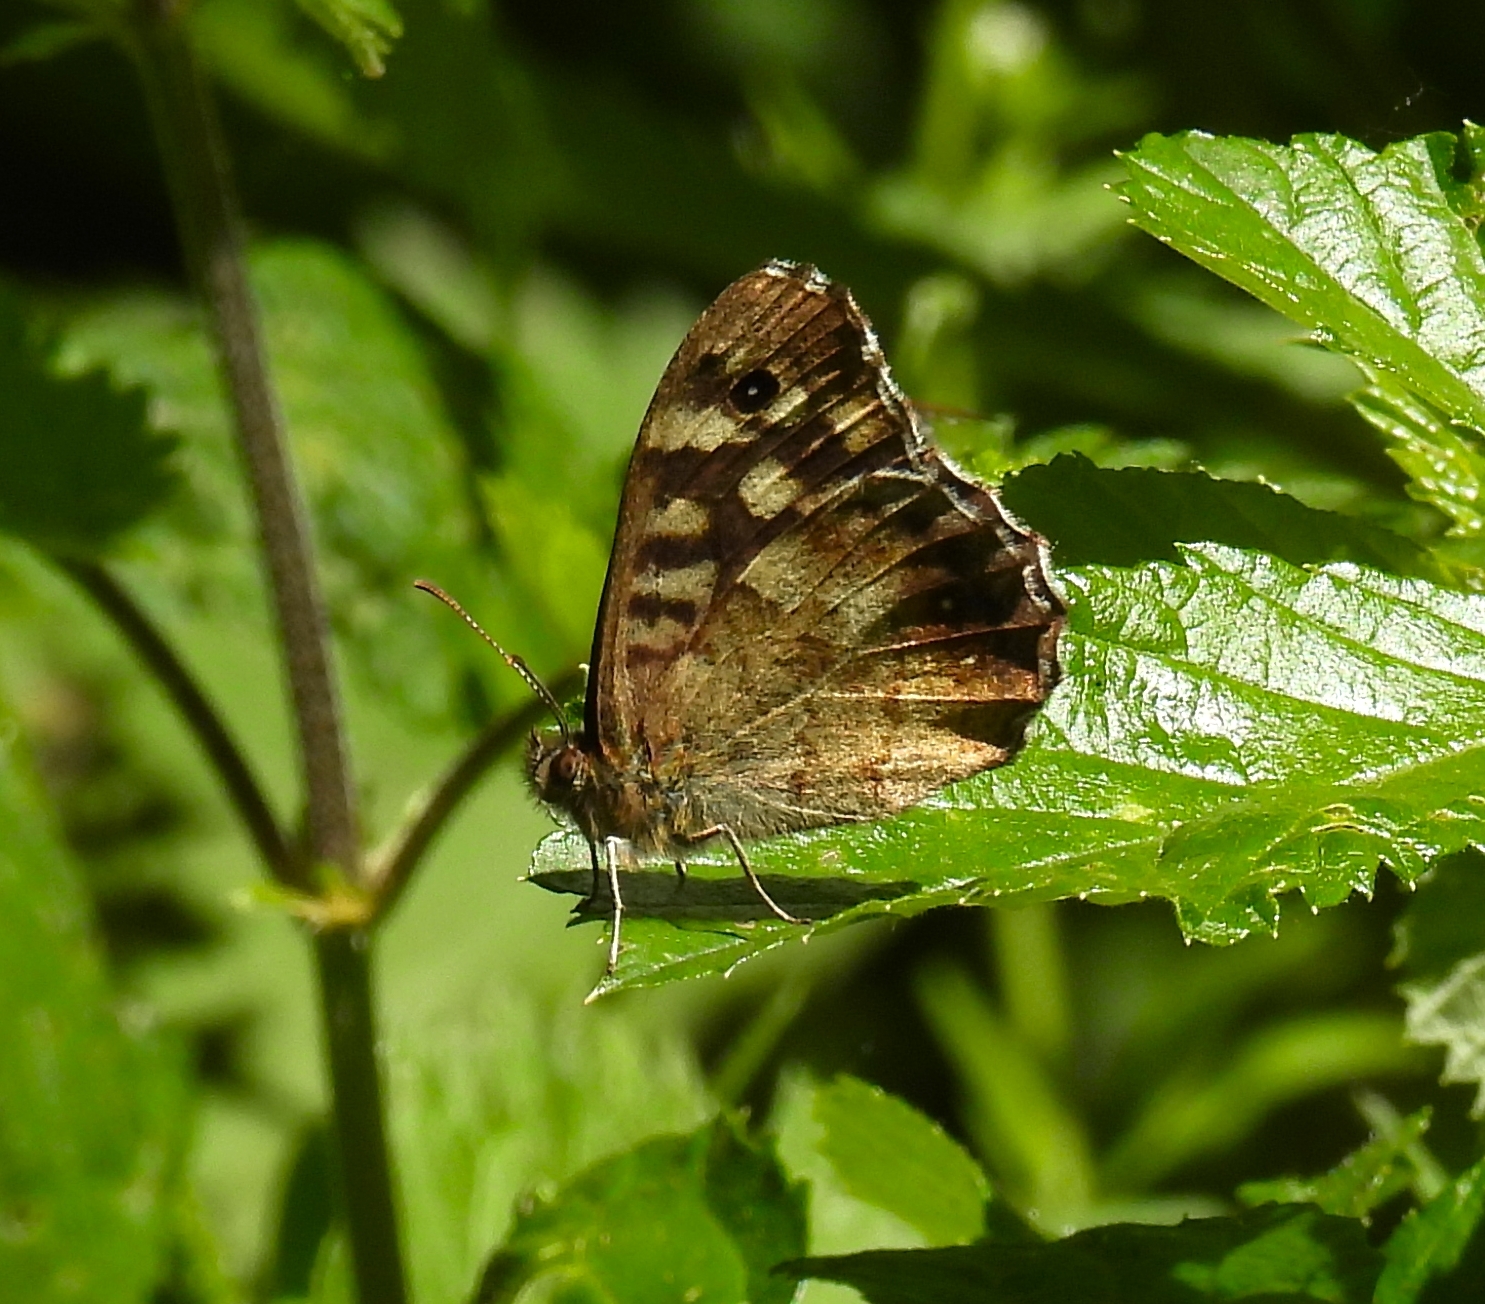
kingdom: Animalia
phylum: Arthropoda
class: Insecta
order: Lepidoptera
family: Nymphalidae
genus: Pararge
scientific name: Pararge aegeria
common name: Speckled wood
